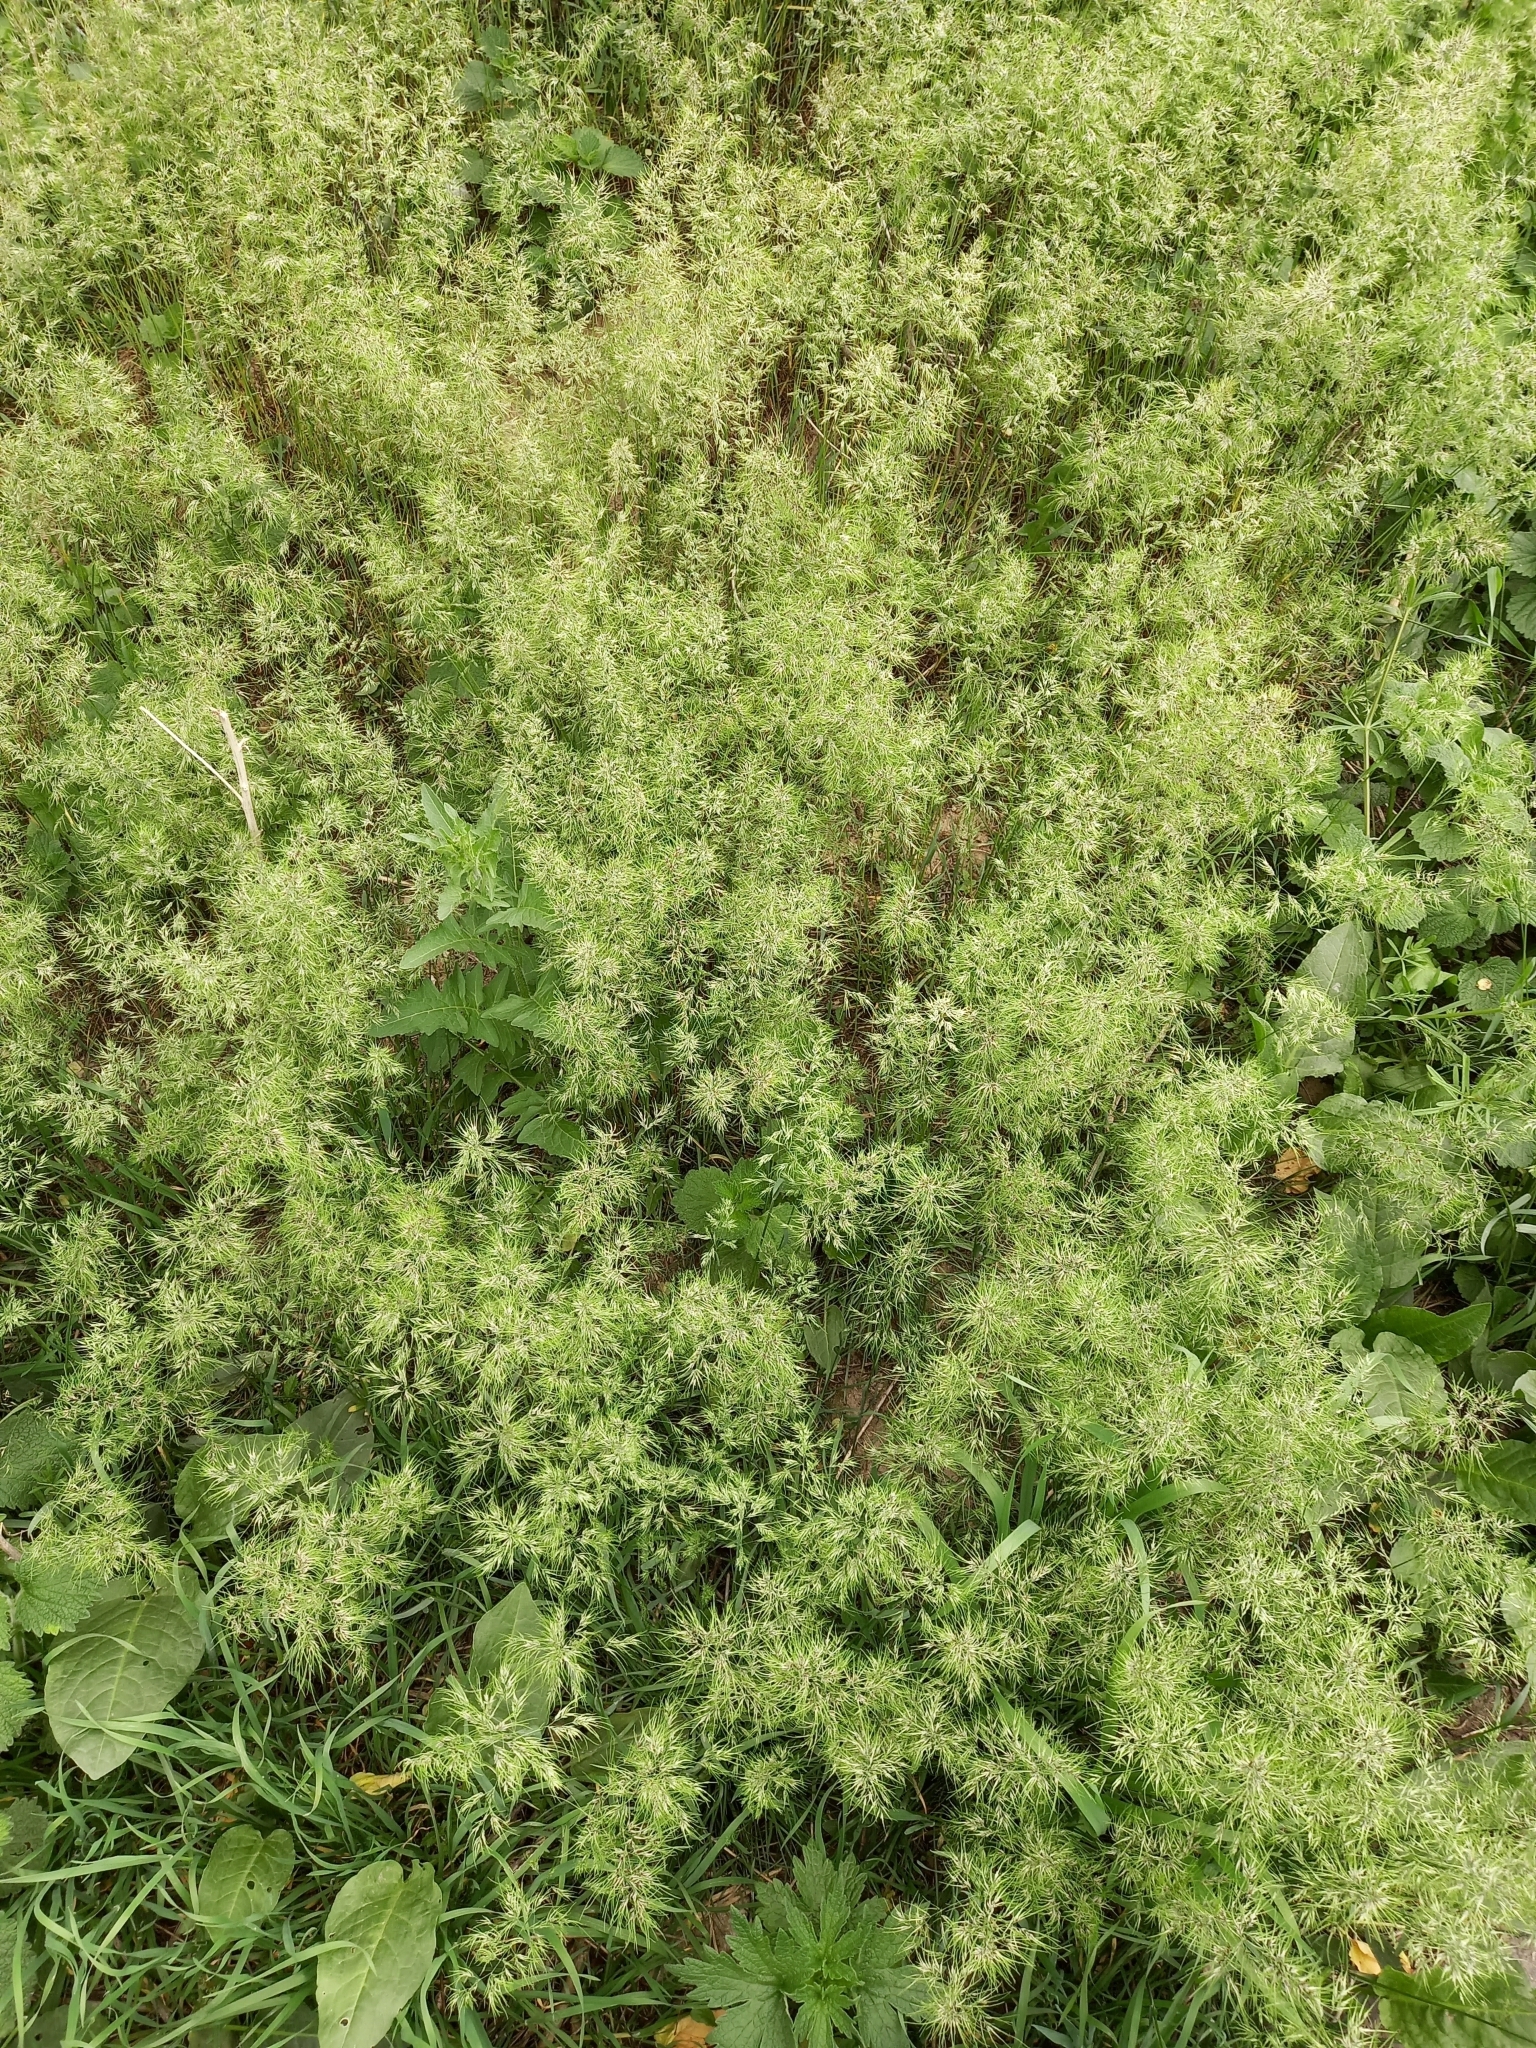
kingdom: Plantae
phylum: Tracheophyta
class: Liliopsida
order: Poales
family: Poaceae
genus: Poa
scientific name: Poa bulbosa
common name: Bulbous bluegrass
